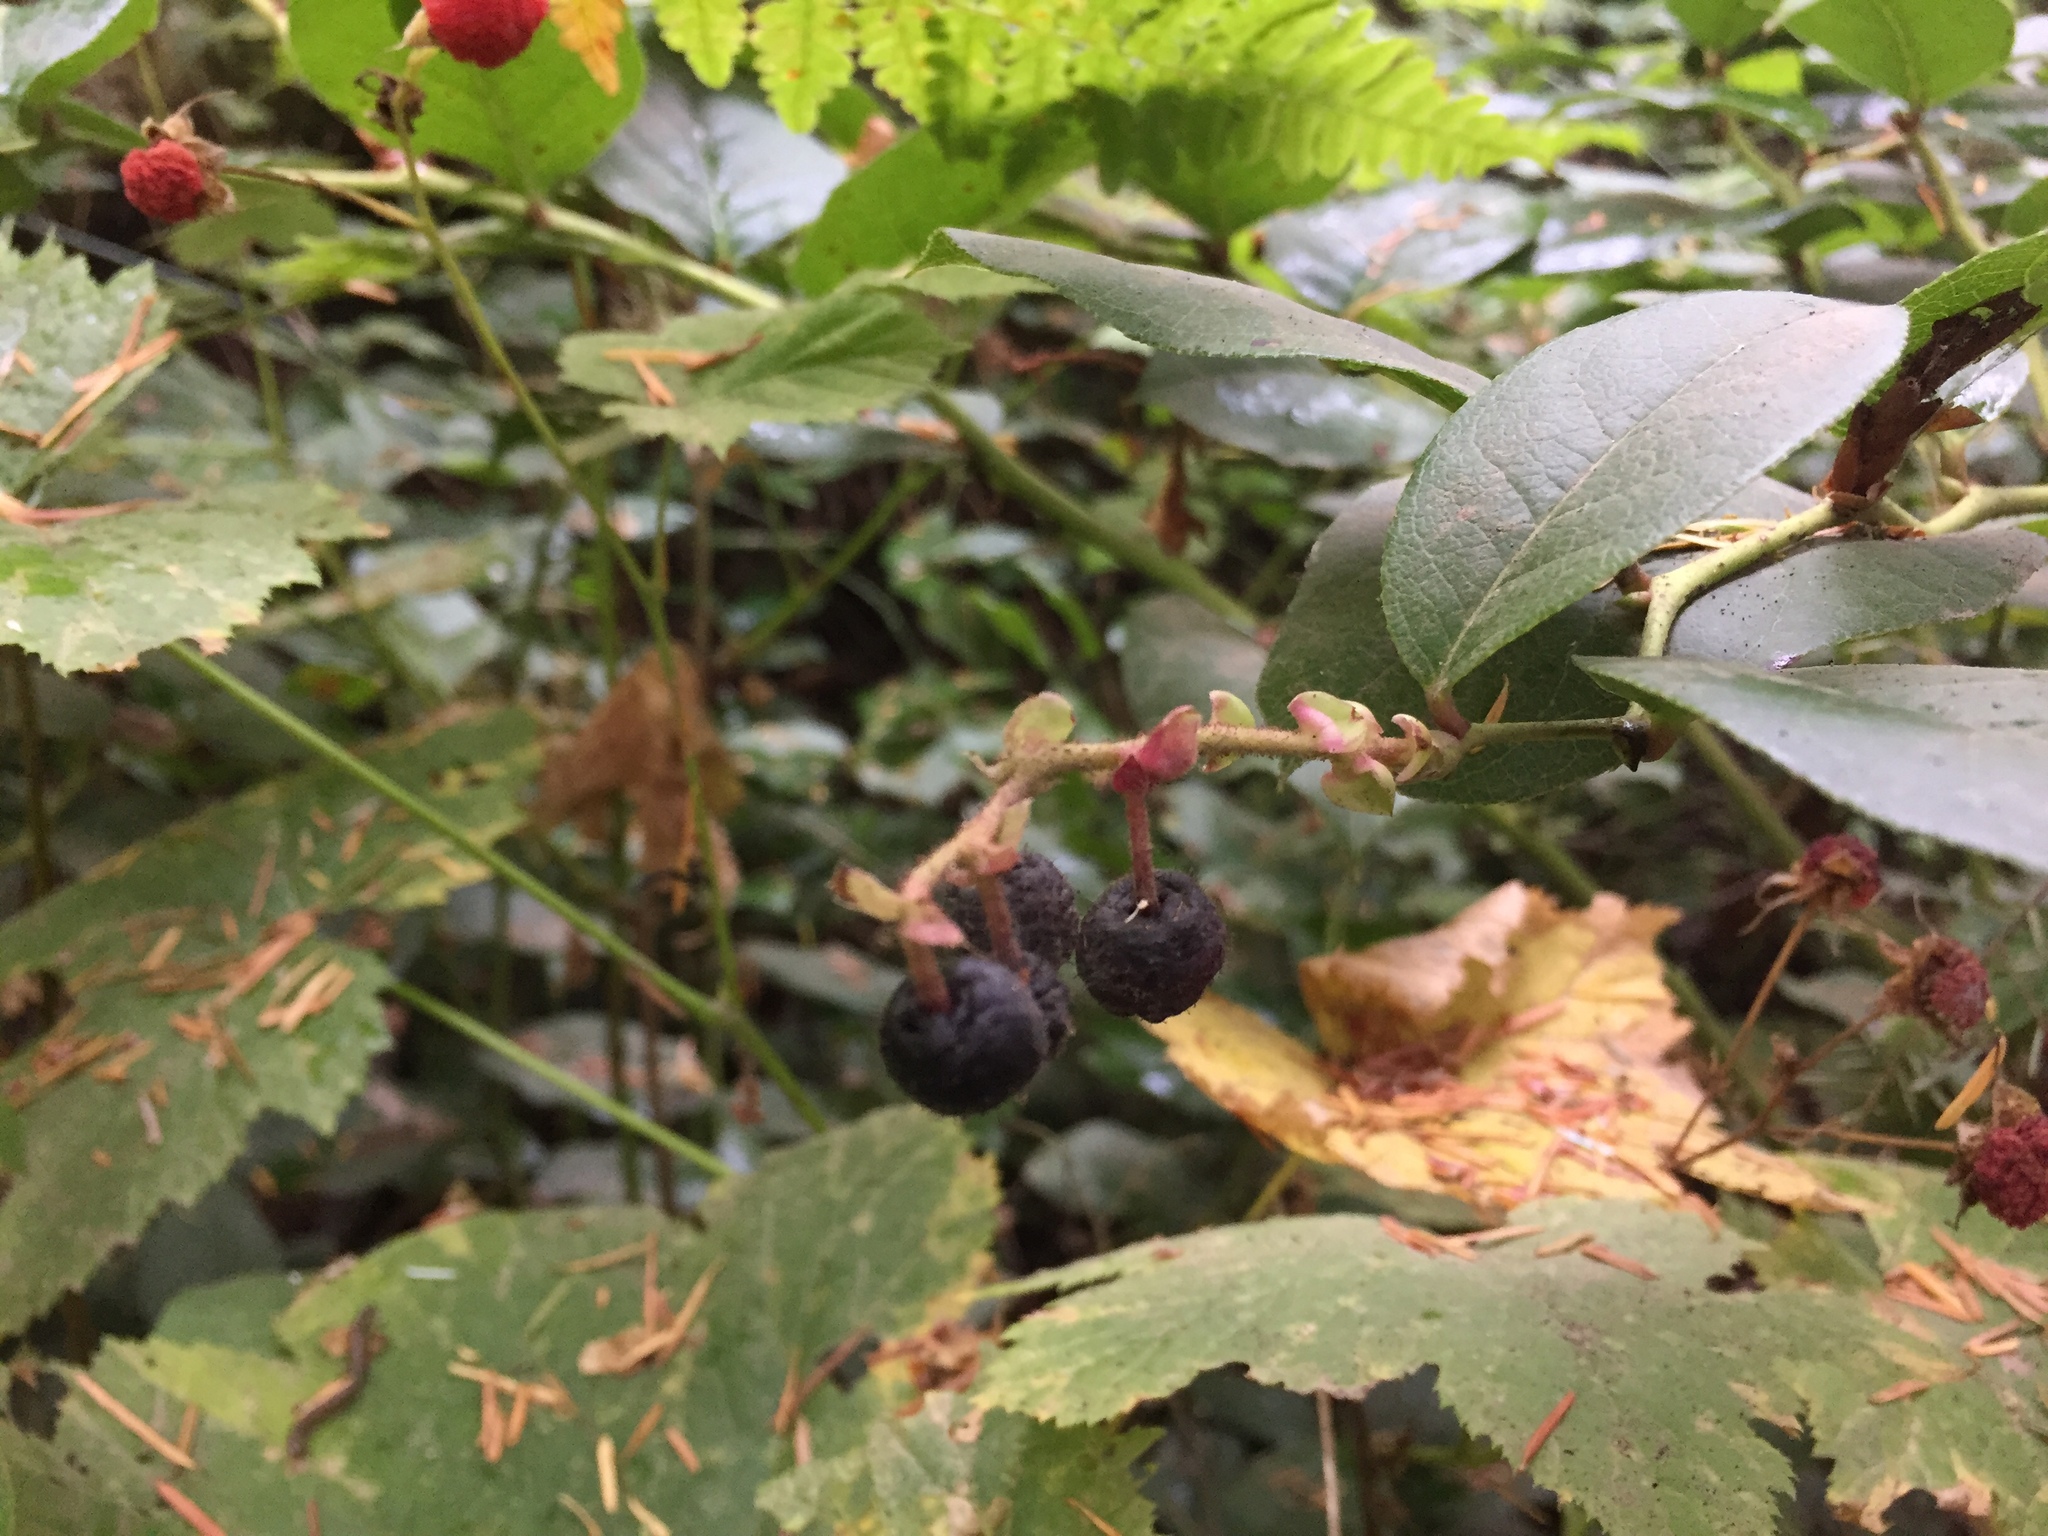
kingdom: Plantae
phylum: Tracheophyta
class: Magnoliopsida
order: Ericales
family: Ericaceae
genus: Gaultheria
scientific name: Gaultheria shallon
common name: Shallon
